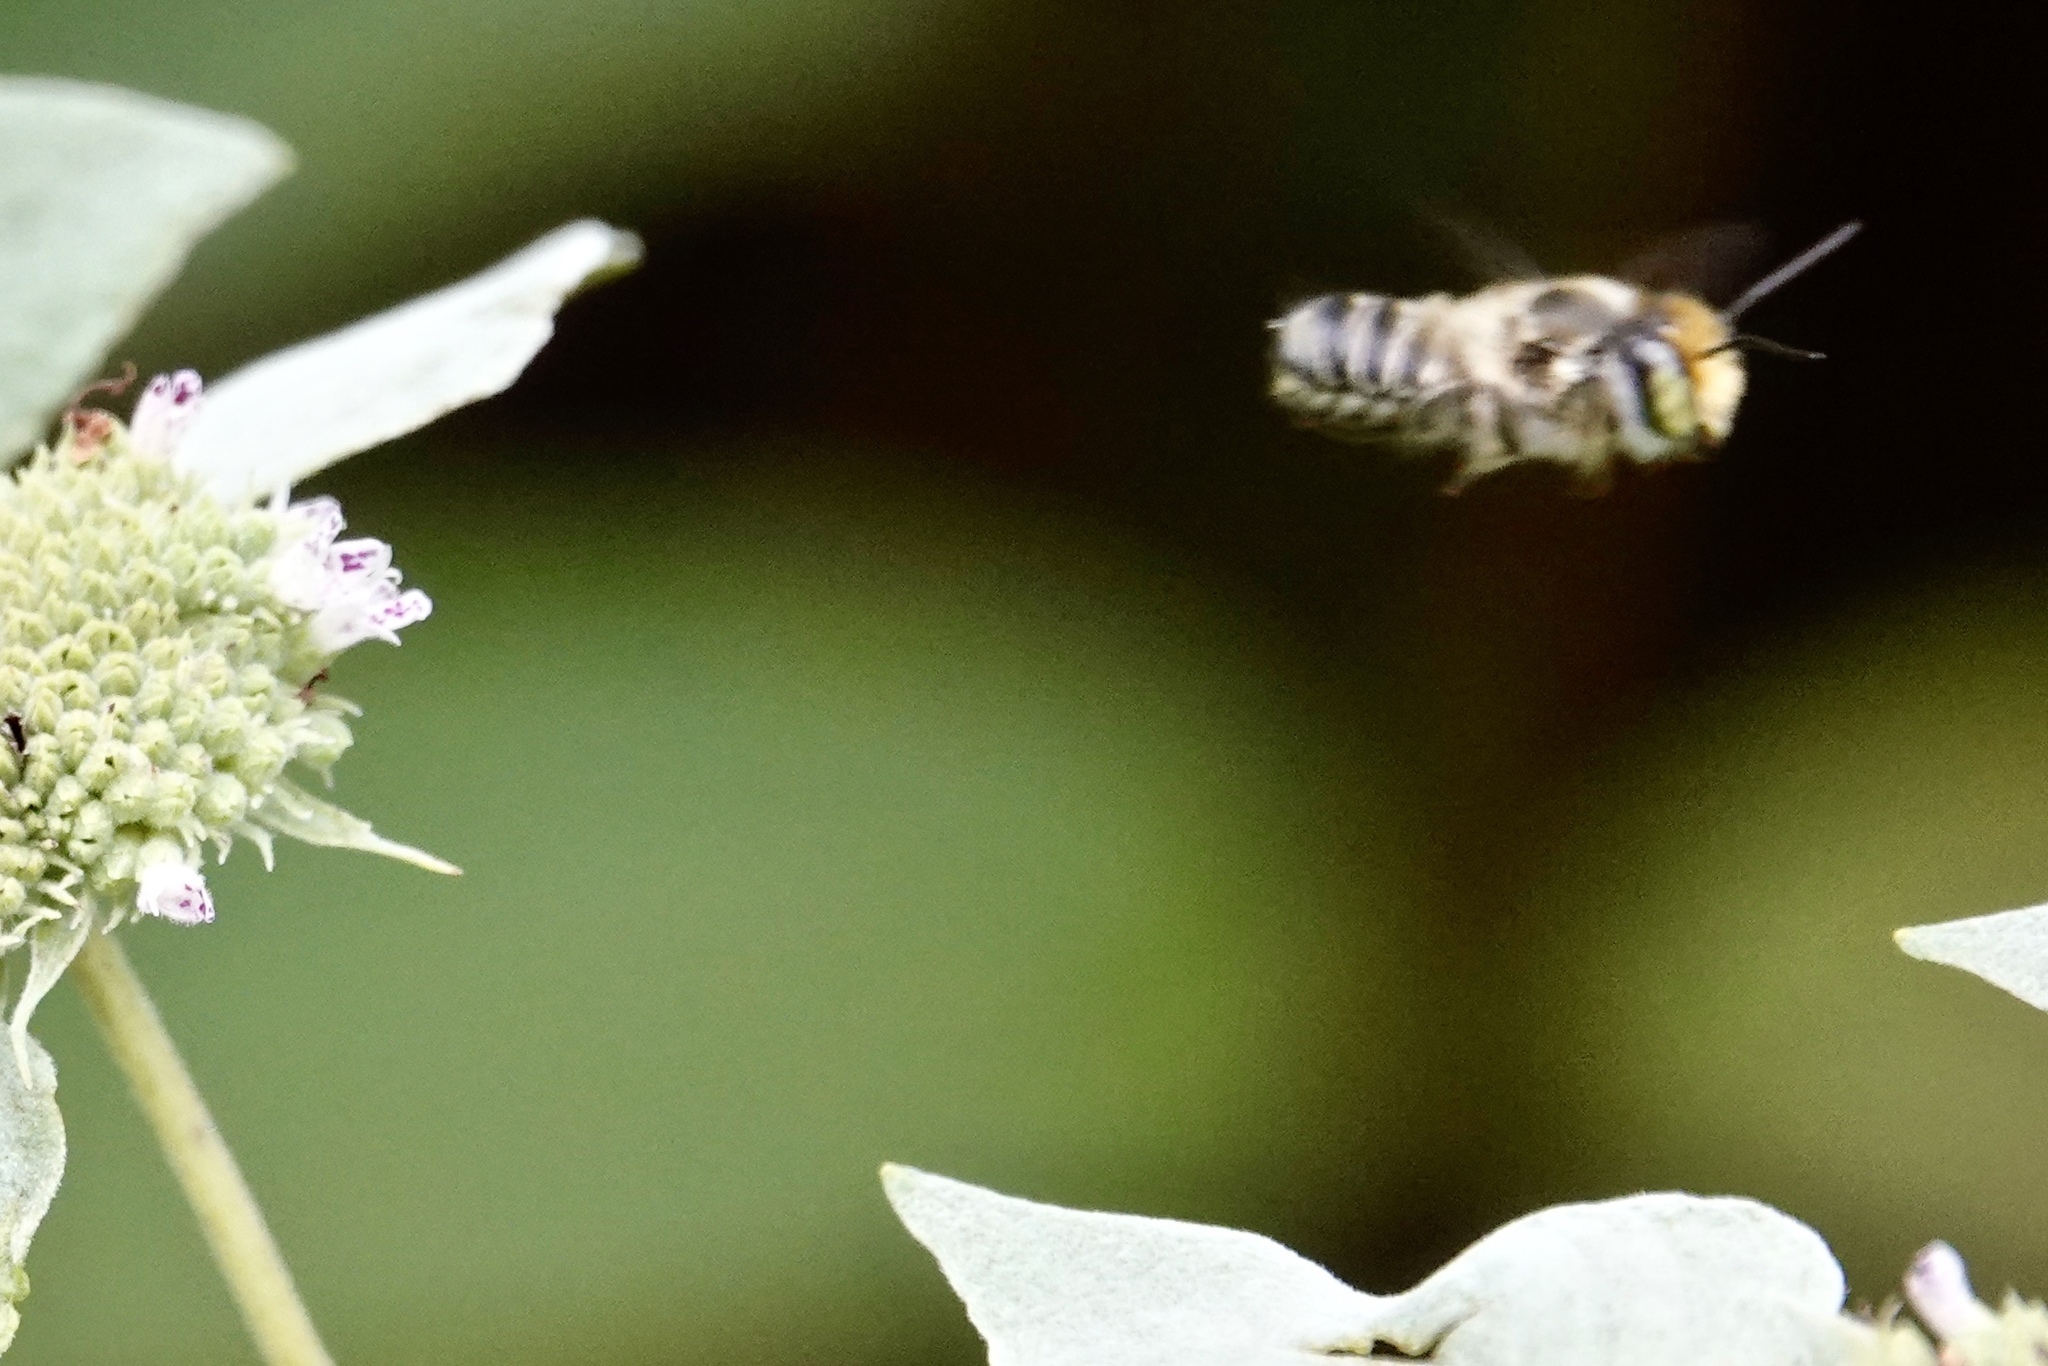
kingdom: Animalia
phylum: Arthropoda
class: Insecta
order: Hymenoptera
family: Megachilidae
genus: Megachile
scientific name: Megachile petulans
